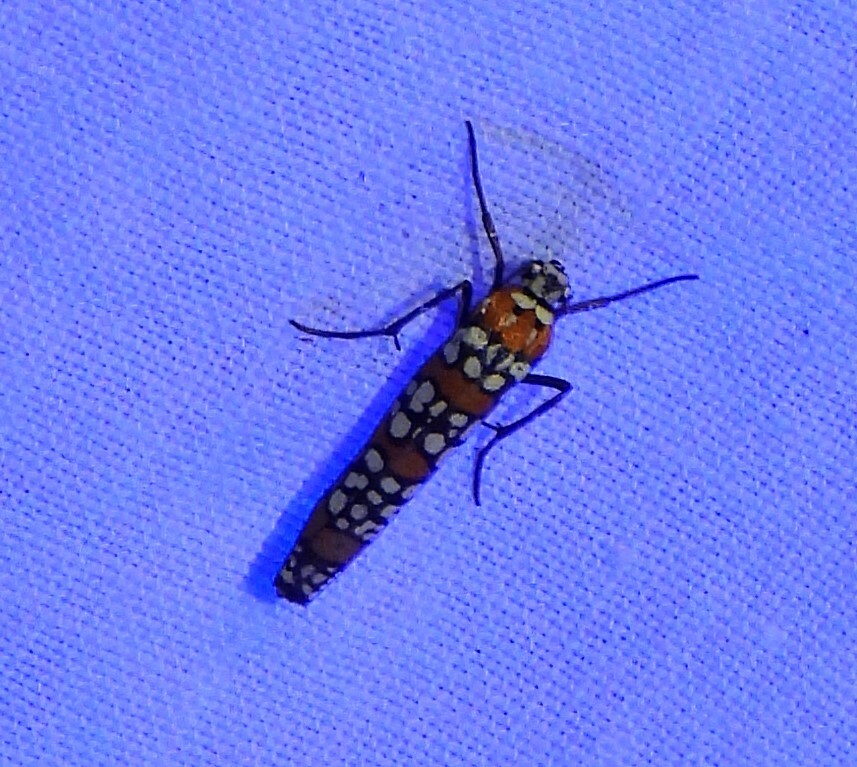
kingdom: Animalia
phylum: Arthropoda
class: Insecta
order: Lepidoptera
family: Attevidae
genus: Atteva
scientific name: Atteva punctella
